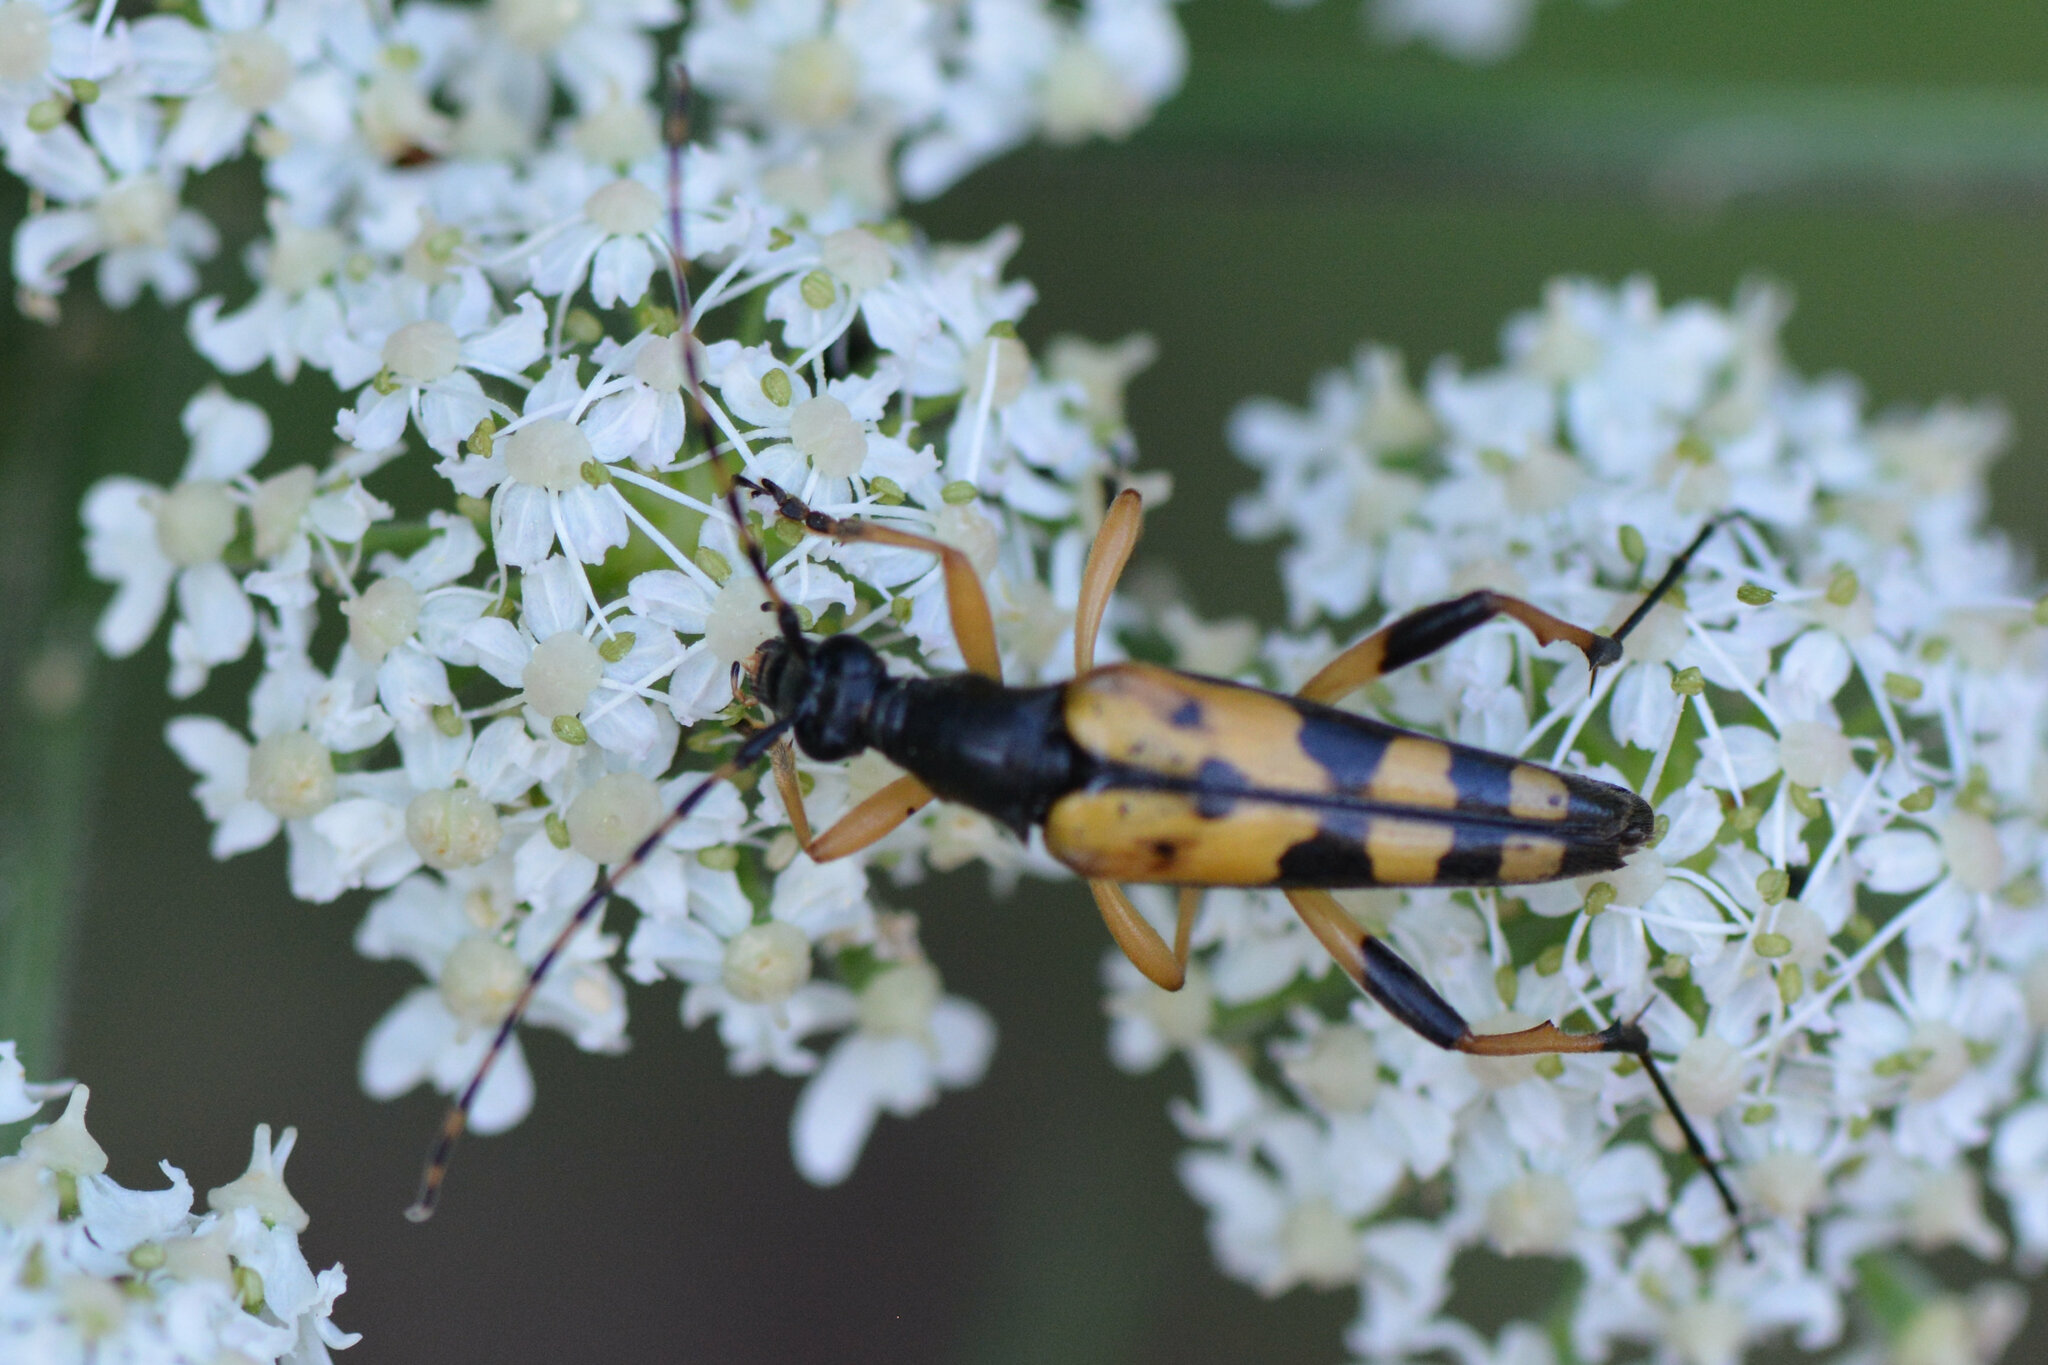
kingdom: Animalia
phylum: Arthropoda
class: Insecta
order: Coleoptera
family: Cerambycidae
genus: Rutpela
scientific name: Rutpela maculata
